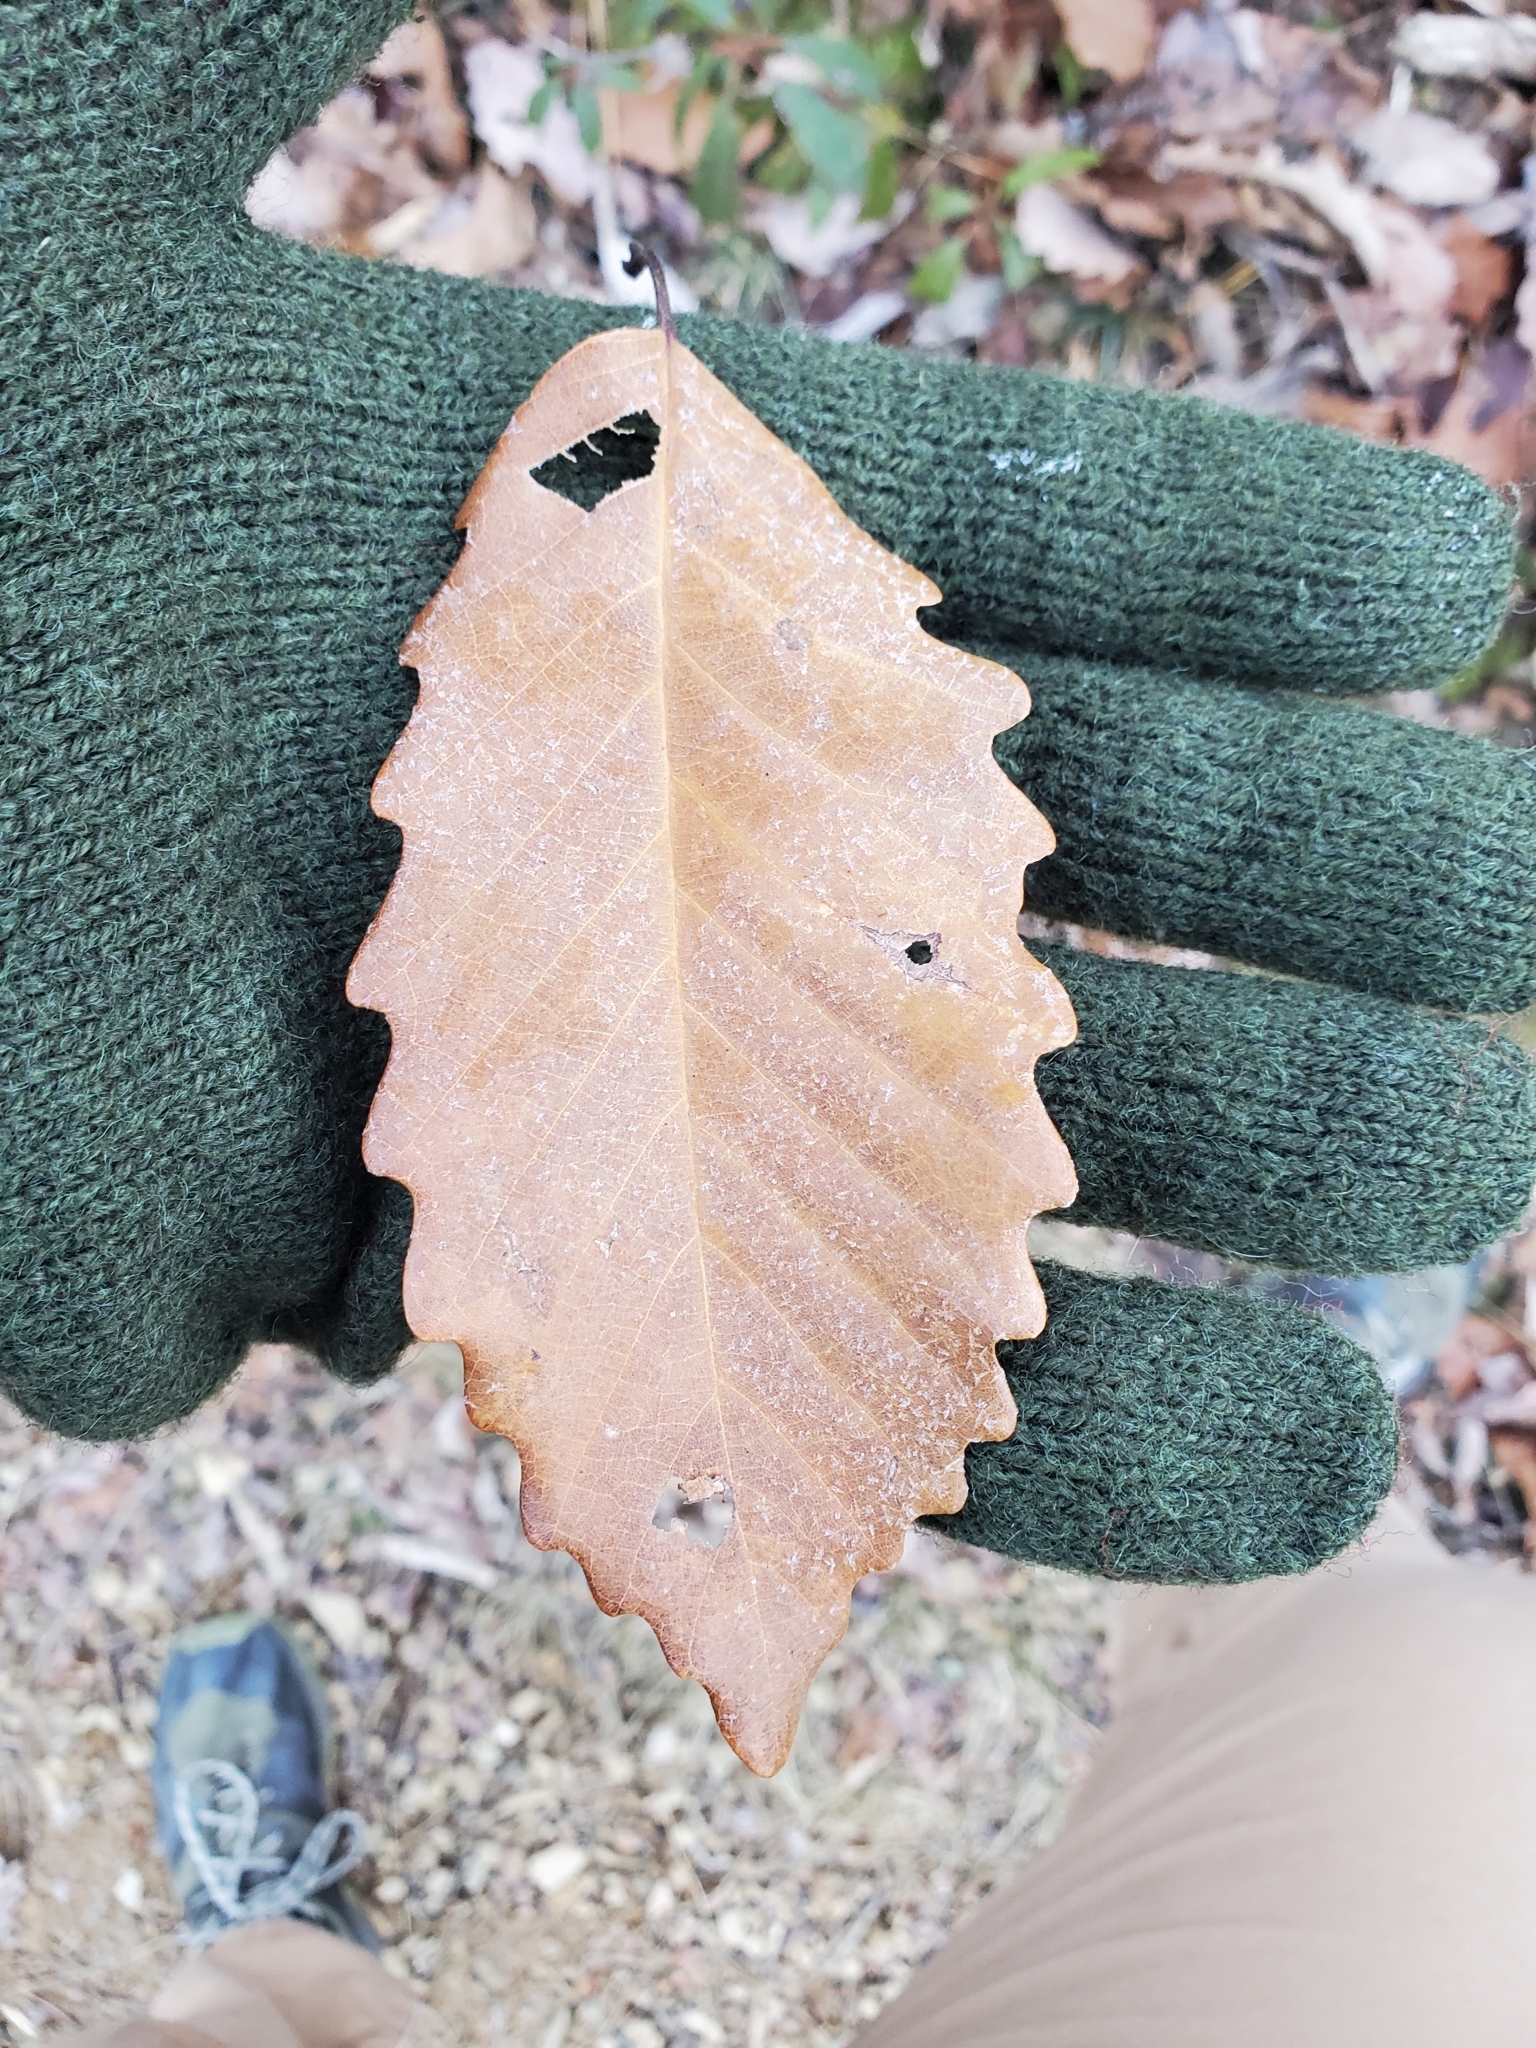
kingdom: Plantae
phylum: Tracheophyta
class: Magnoliopsida
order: Fagales
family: Fagaceae
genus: Quercus
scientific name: Quercus montana
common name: Chestnut oak
